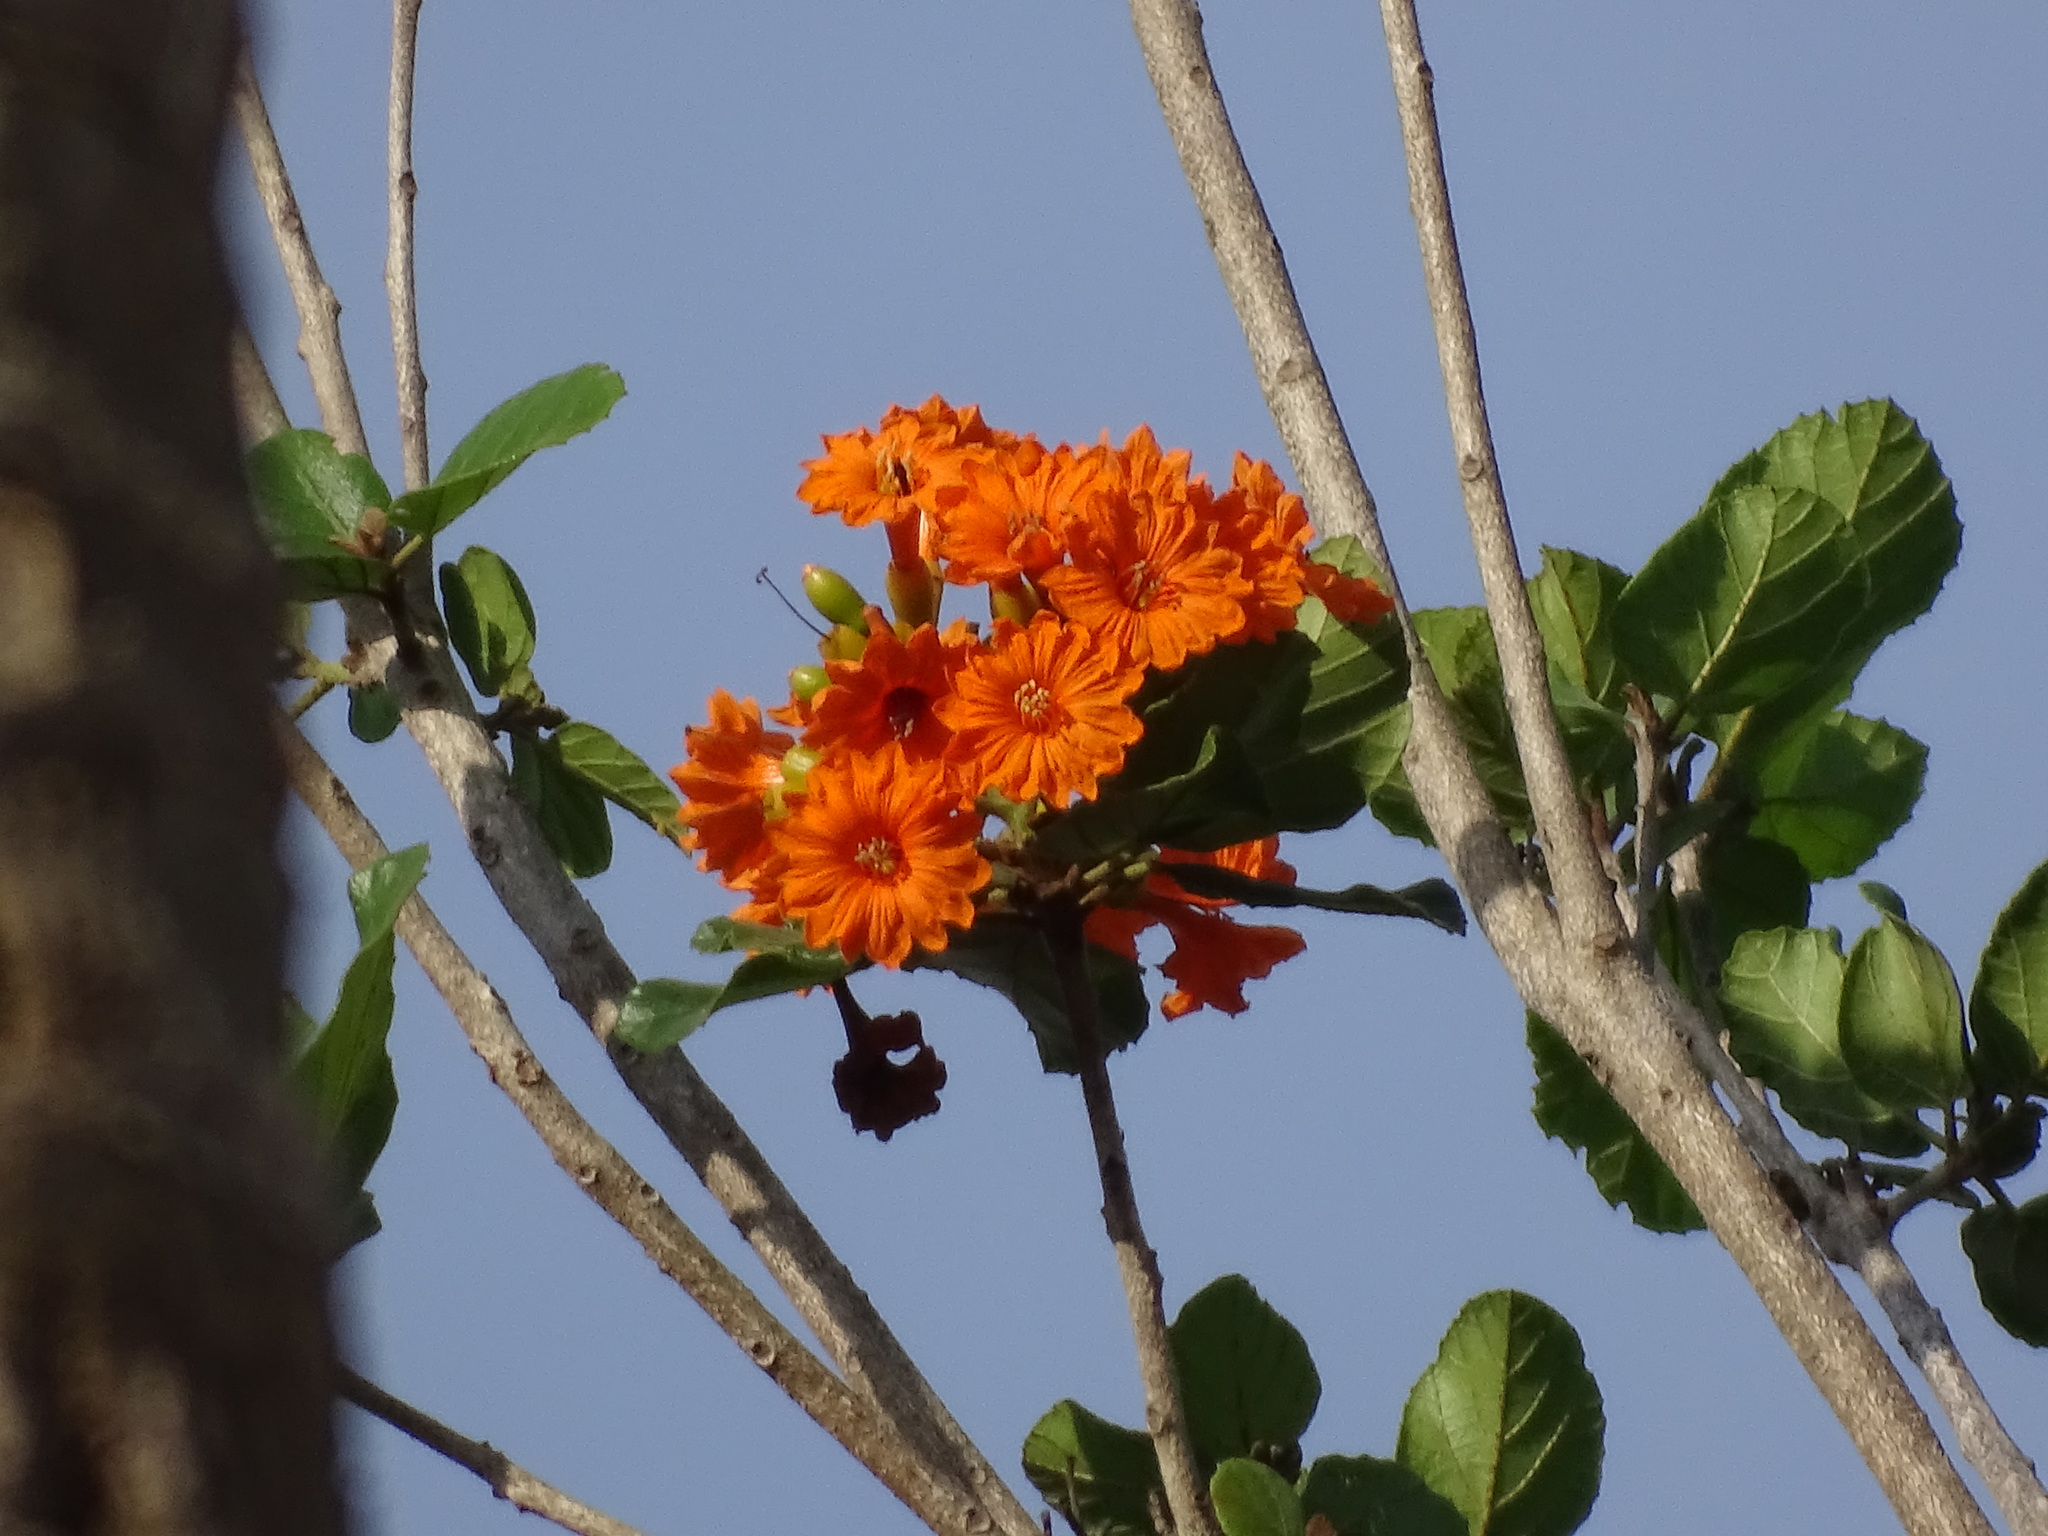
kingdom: Plantae
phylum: Tracheophyta
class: Magnoliopsida
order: Boraginales
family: Cordiaceae
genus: Cordia
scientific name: Cordia dodecandra
